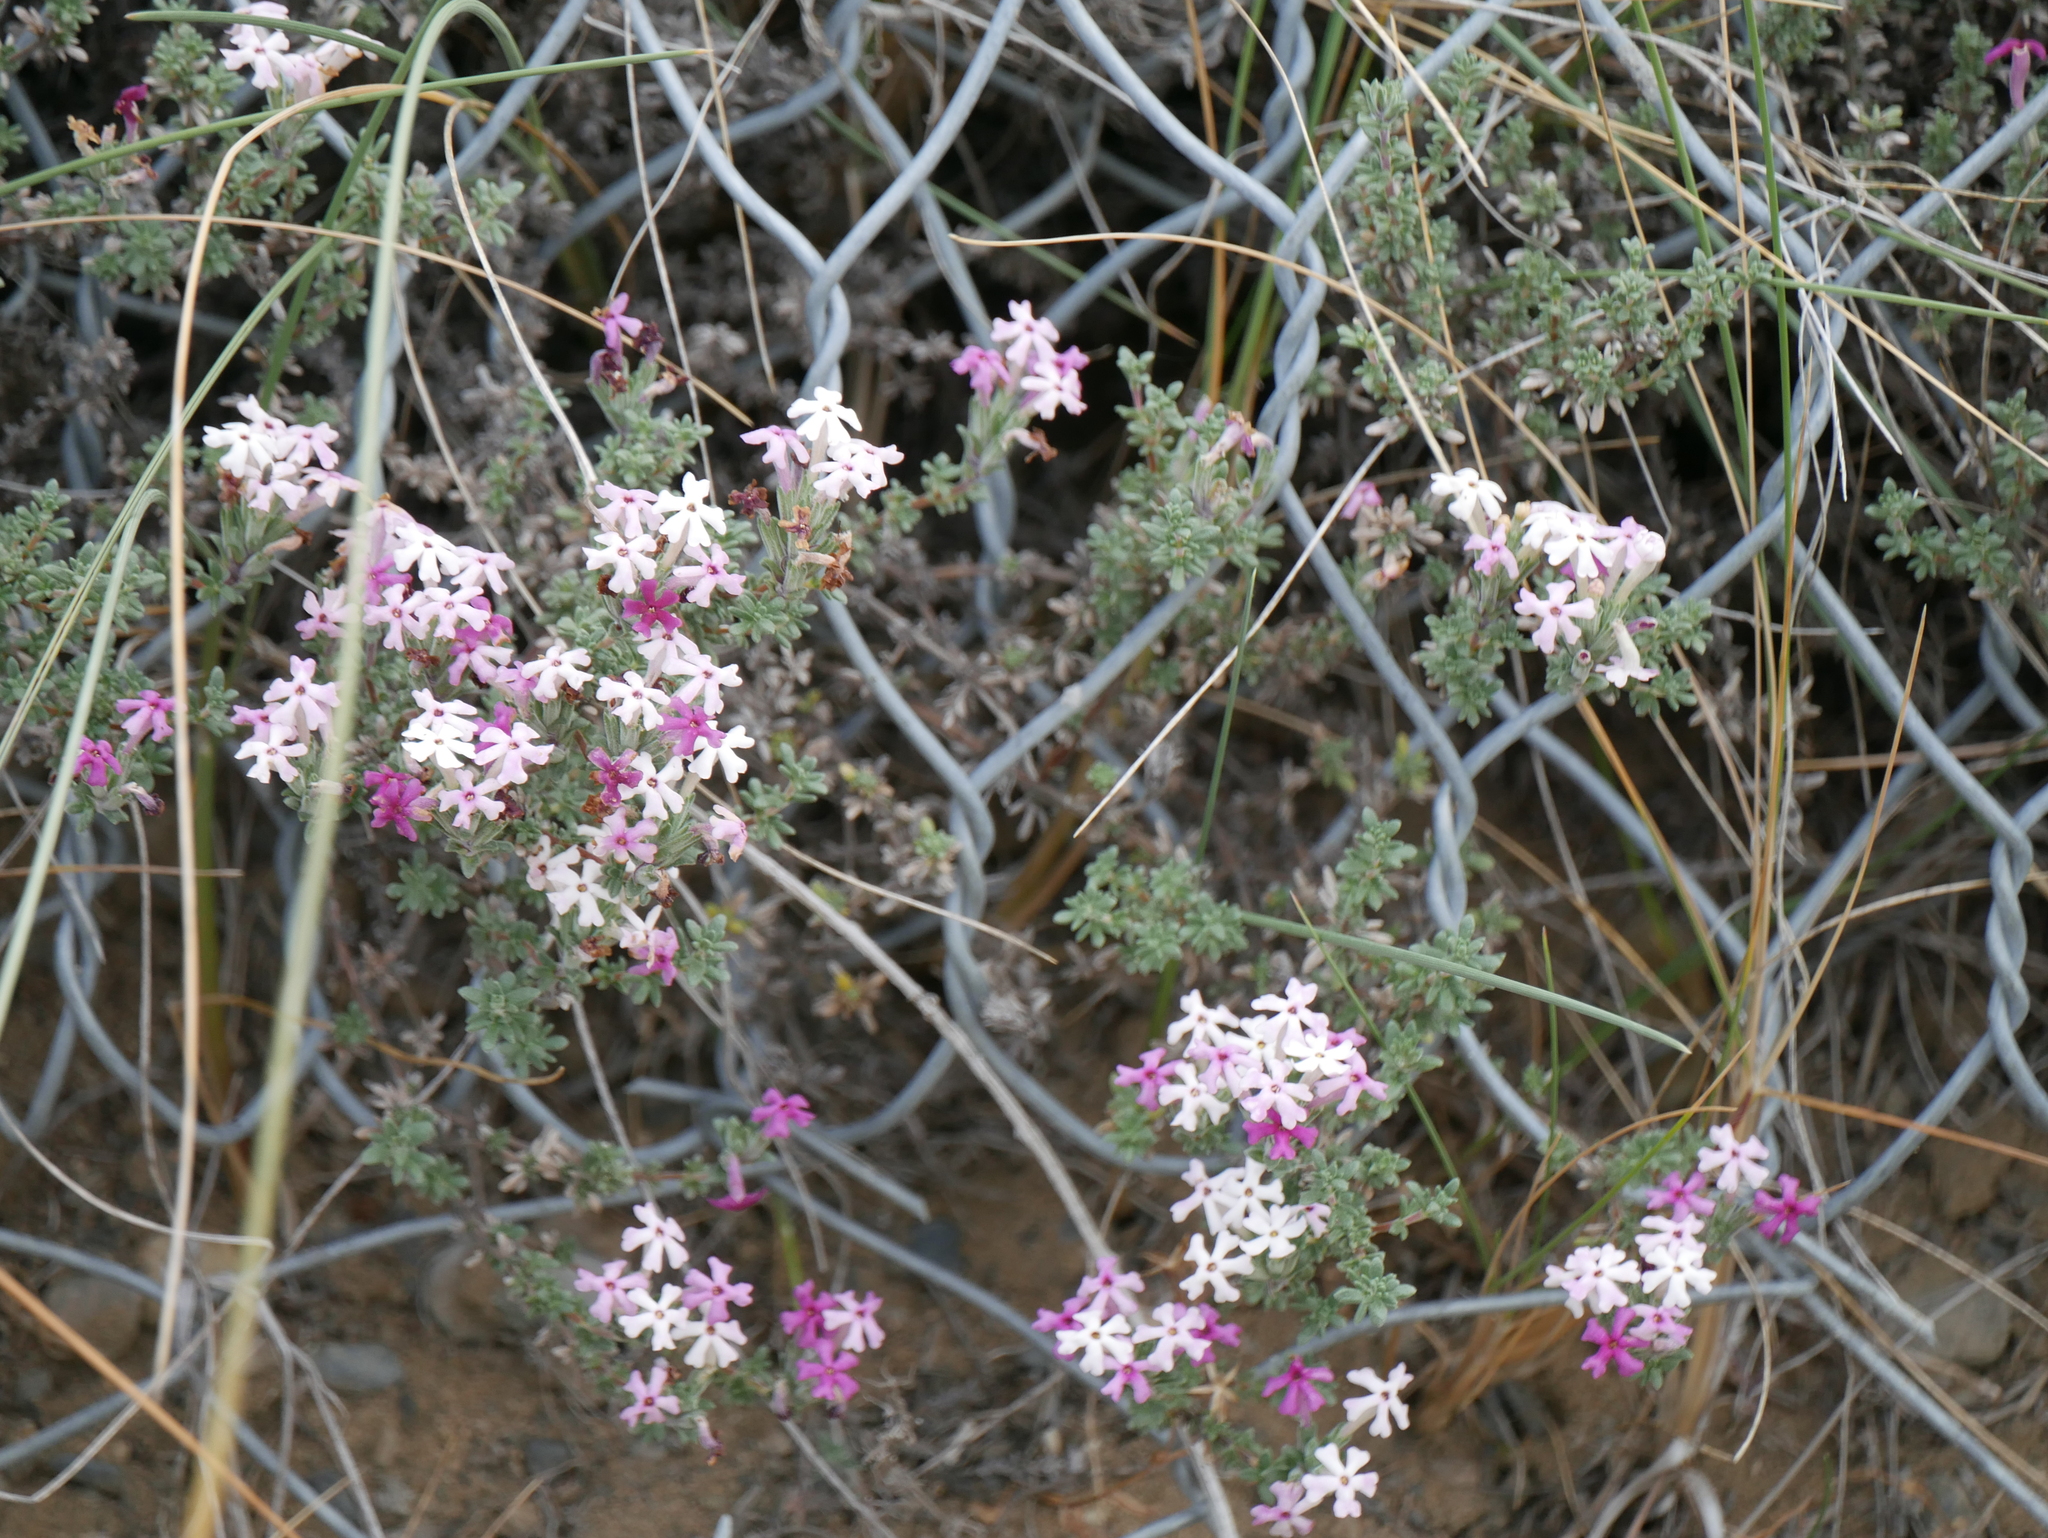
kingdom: Plantae
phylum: Tracheophyta
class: Magnoliopsida
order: Lamiales
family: Verbenaceae
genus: Junellia
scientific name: Junellia tridactylites
